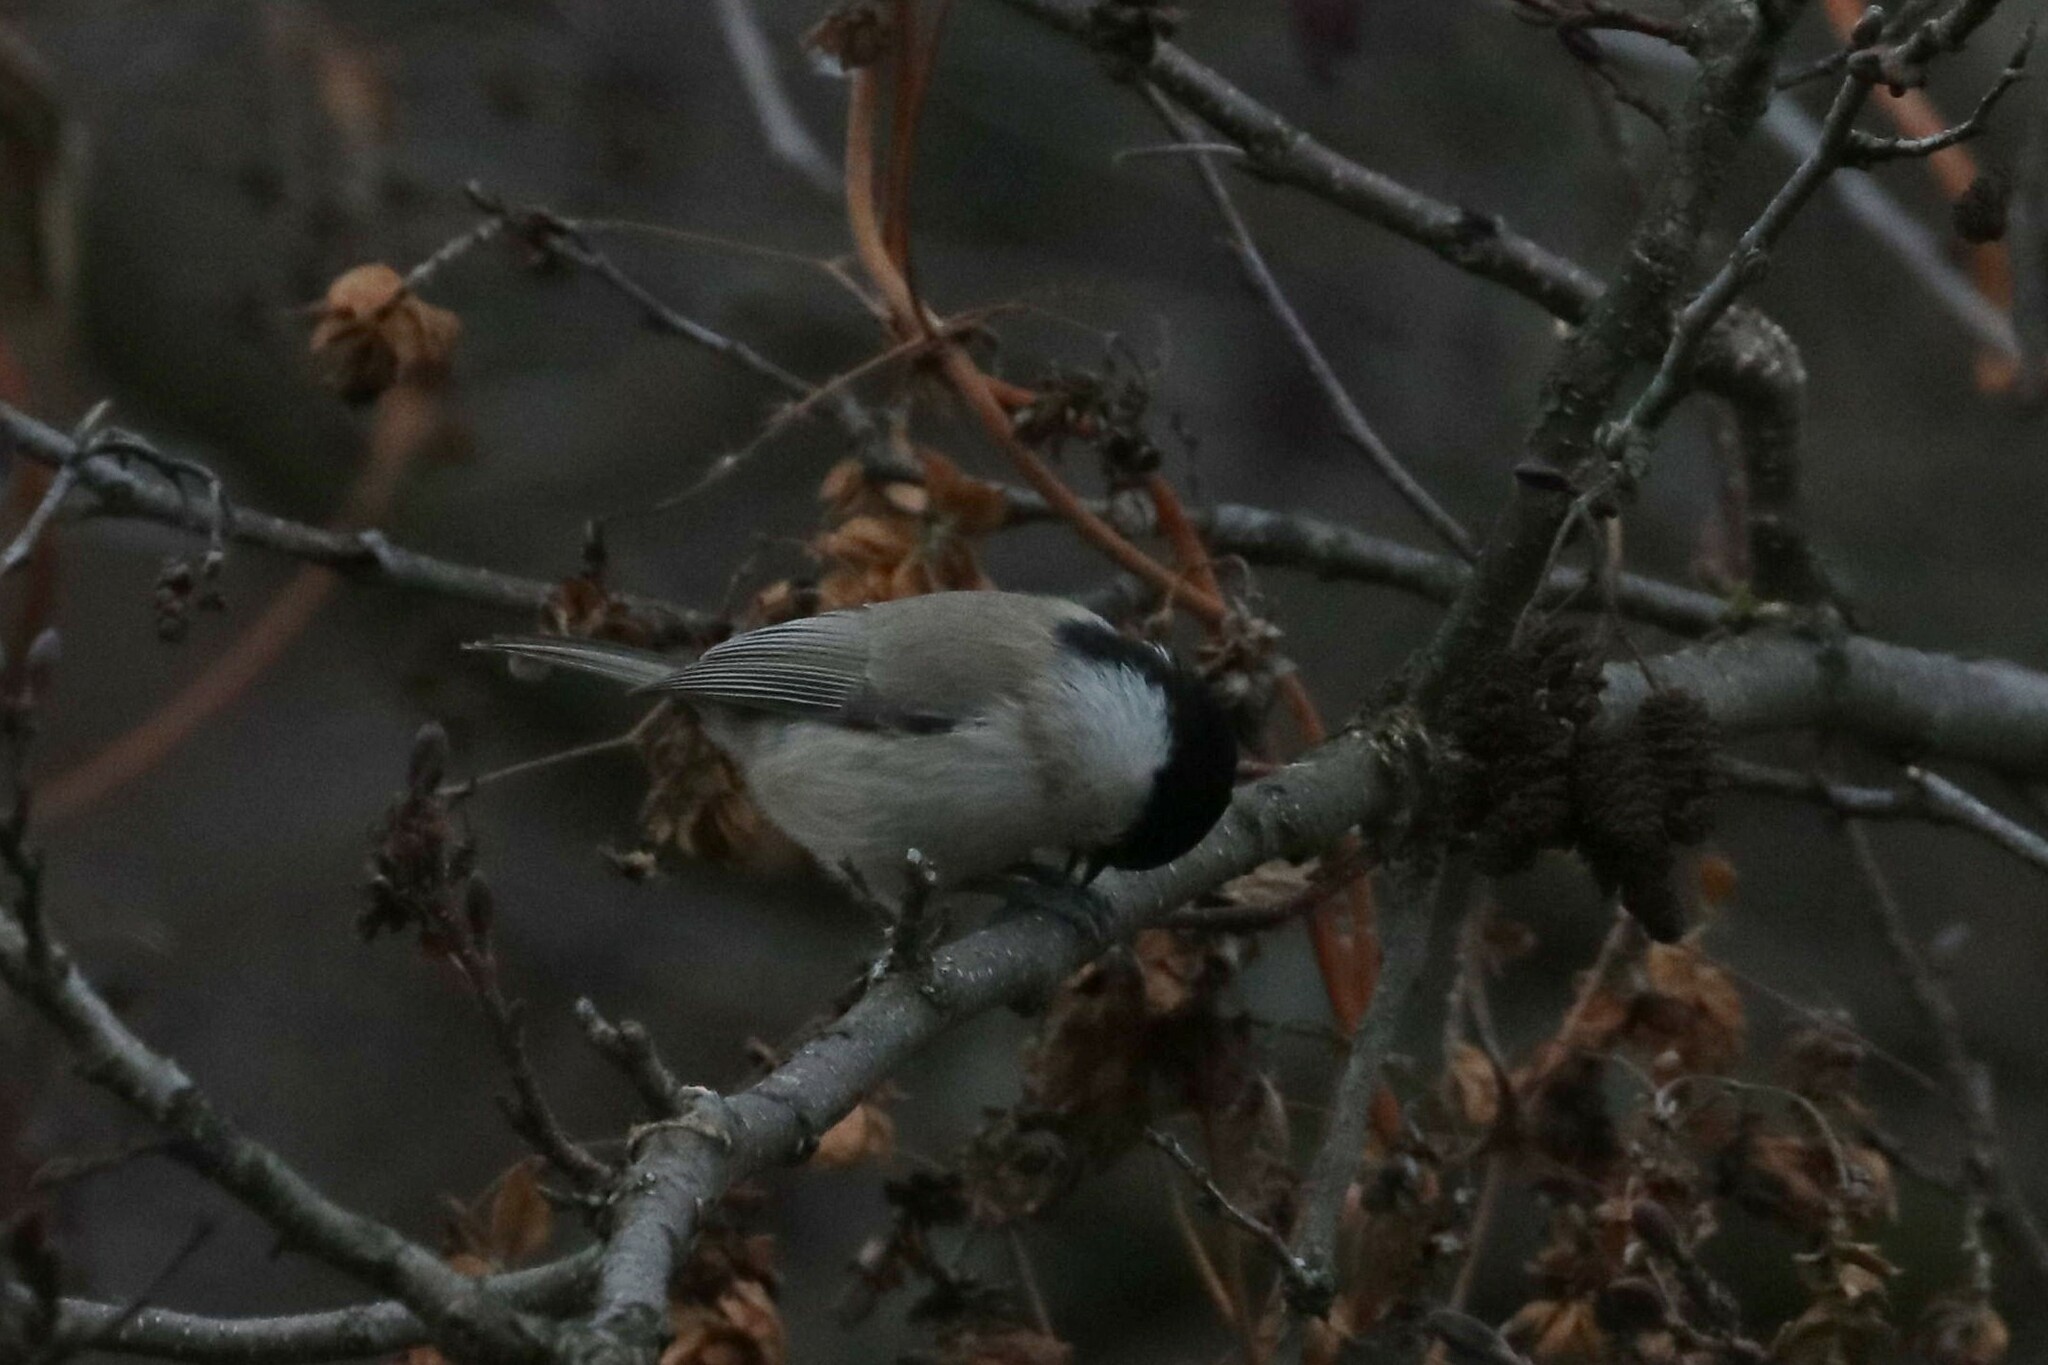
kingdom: Animalia
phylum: Chordata
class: Aves
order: Passeriformes
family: Paridae
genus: Poecile
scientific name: Poecile palustris
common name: Marsh tit
